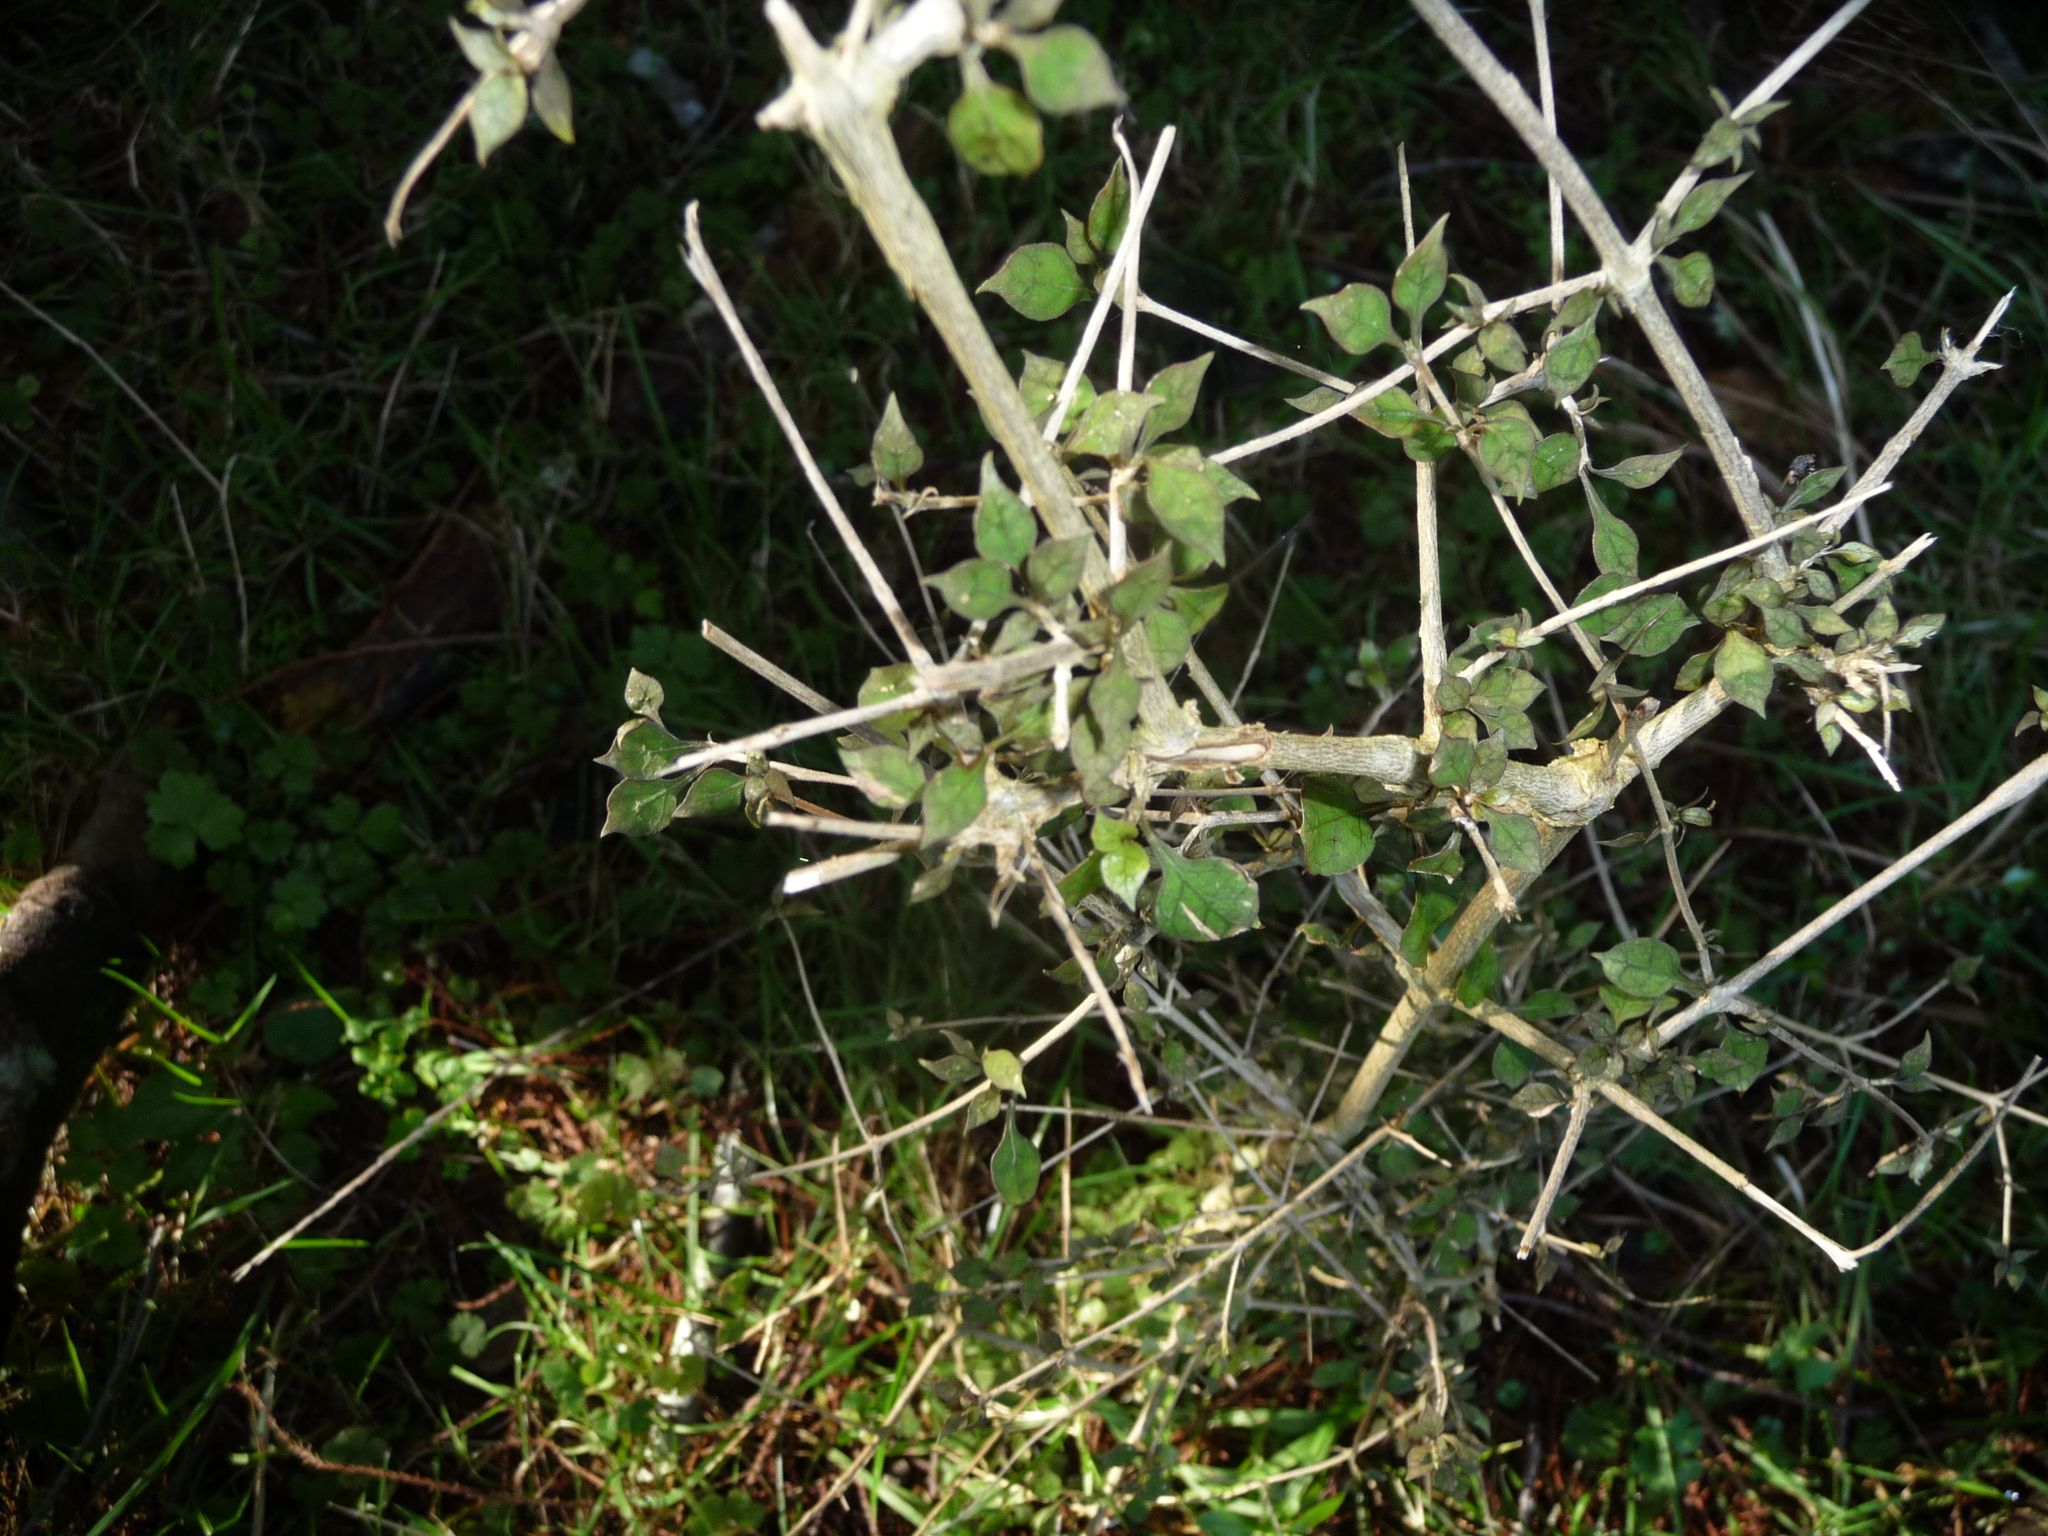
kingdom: Plantae
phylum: Tracheophyta
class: Magnoliopsida
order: Gentianales
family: Rubiaceae
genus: Coprosma
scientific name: Coprosma areolata
